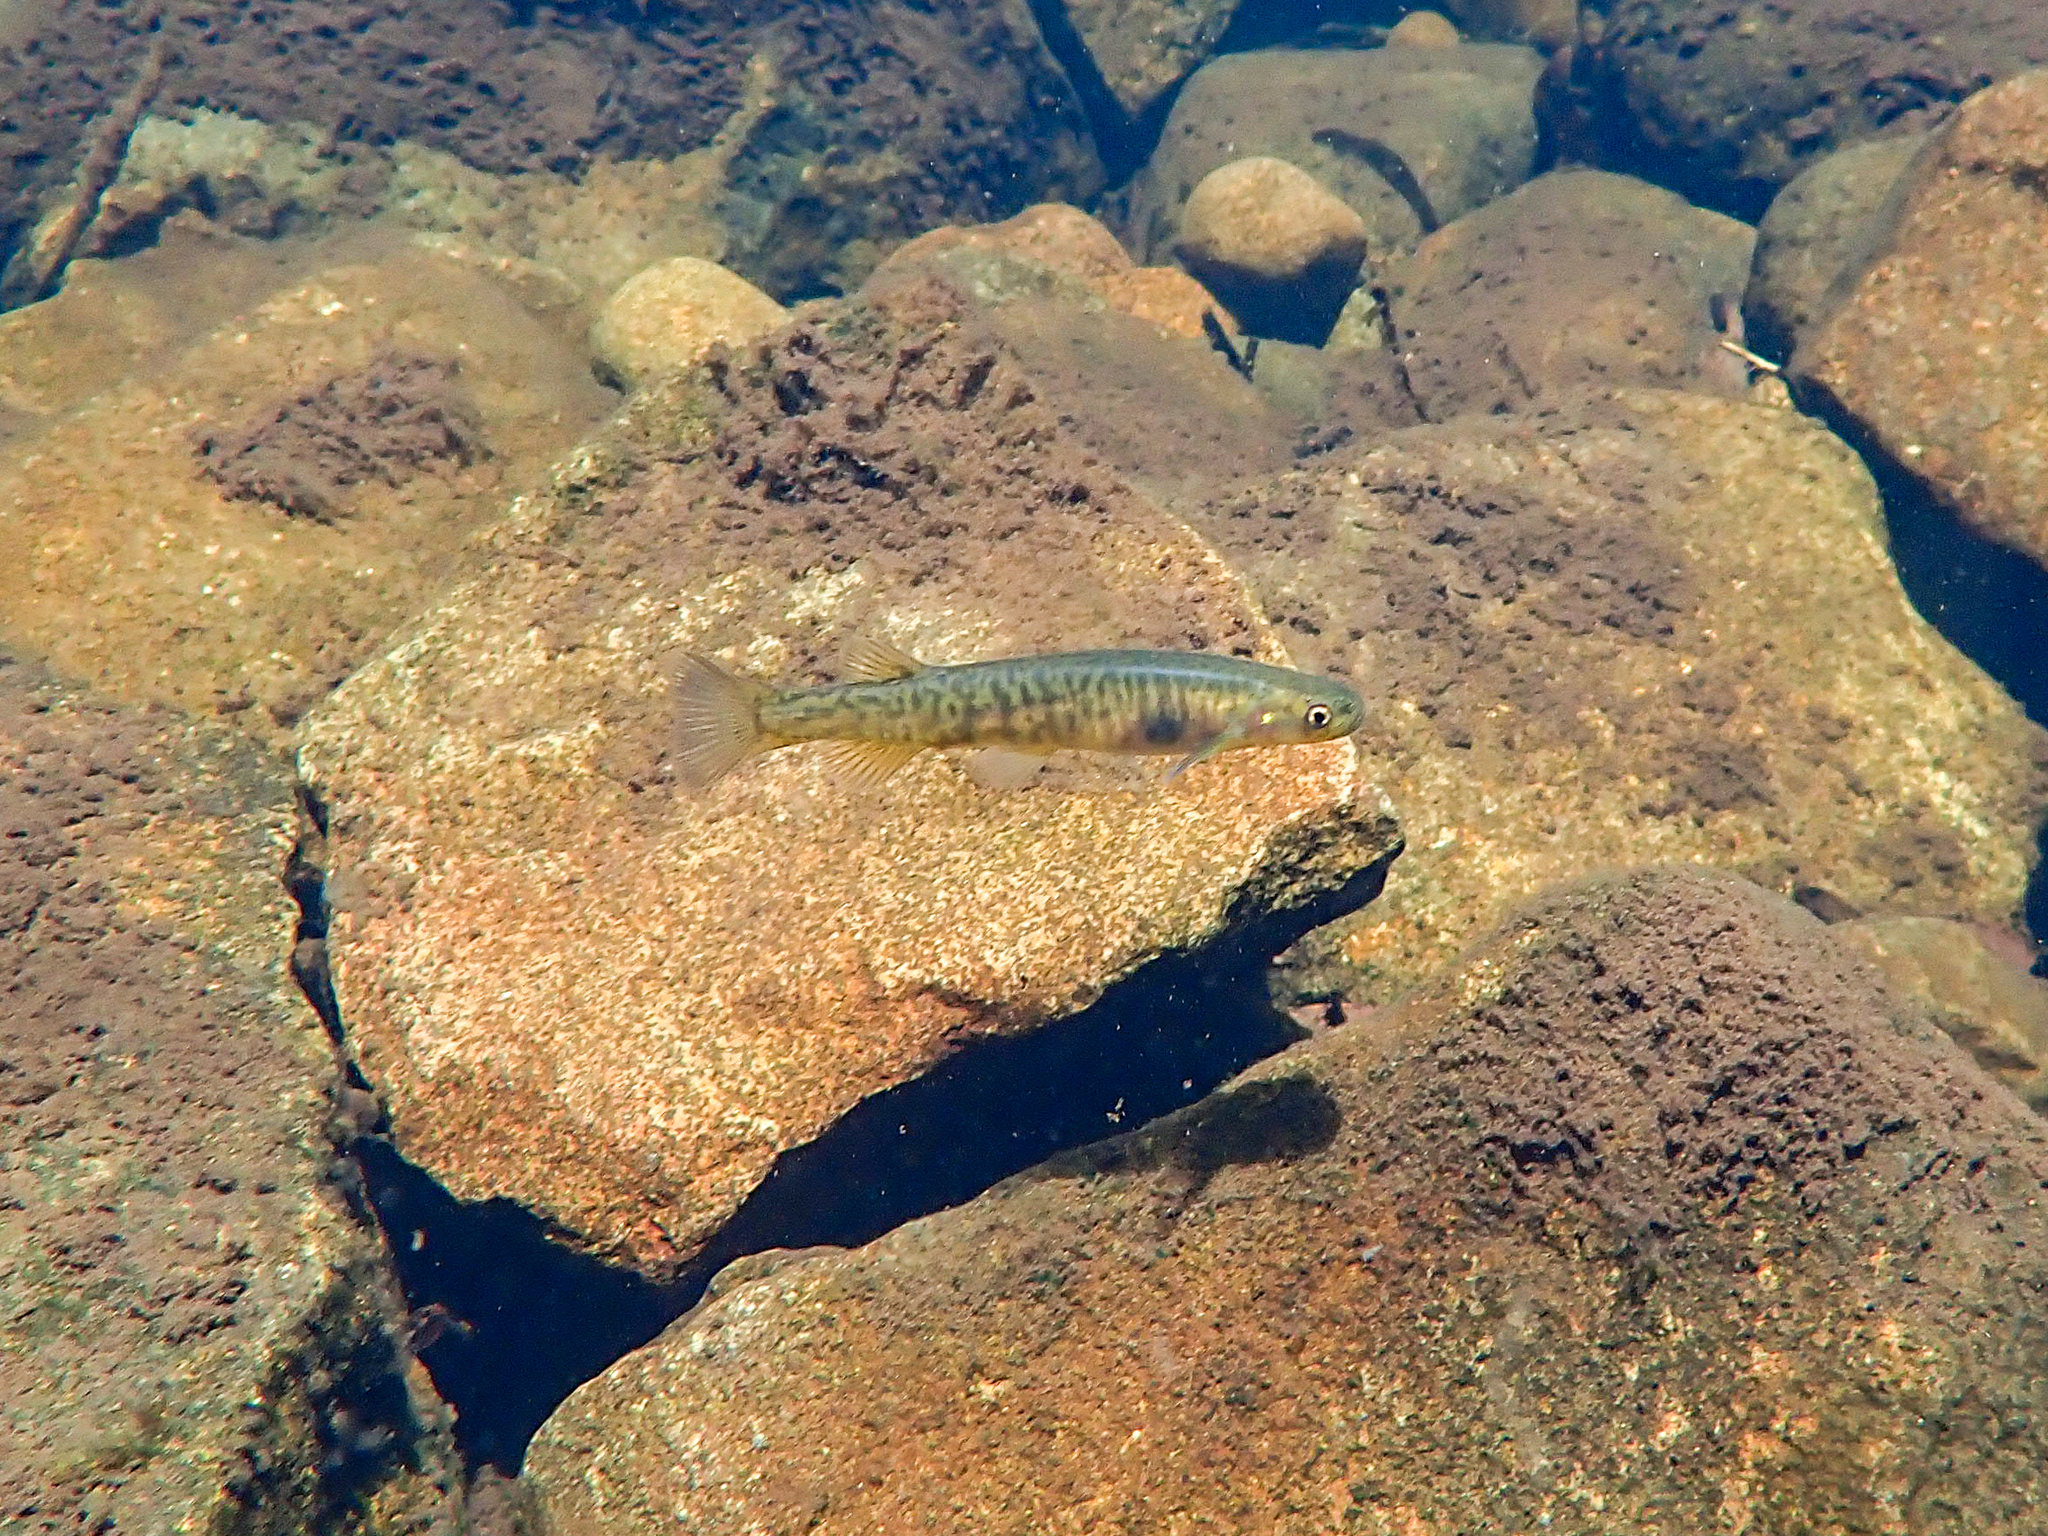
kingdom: Animalia
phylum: Chordata
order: Osmeriformes
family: Galaxiidae
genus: Galaxias
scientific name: Galaxias fontanus
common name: Swan galaxias
